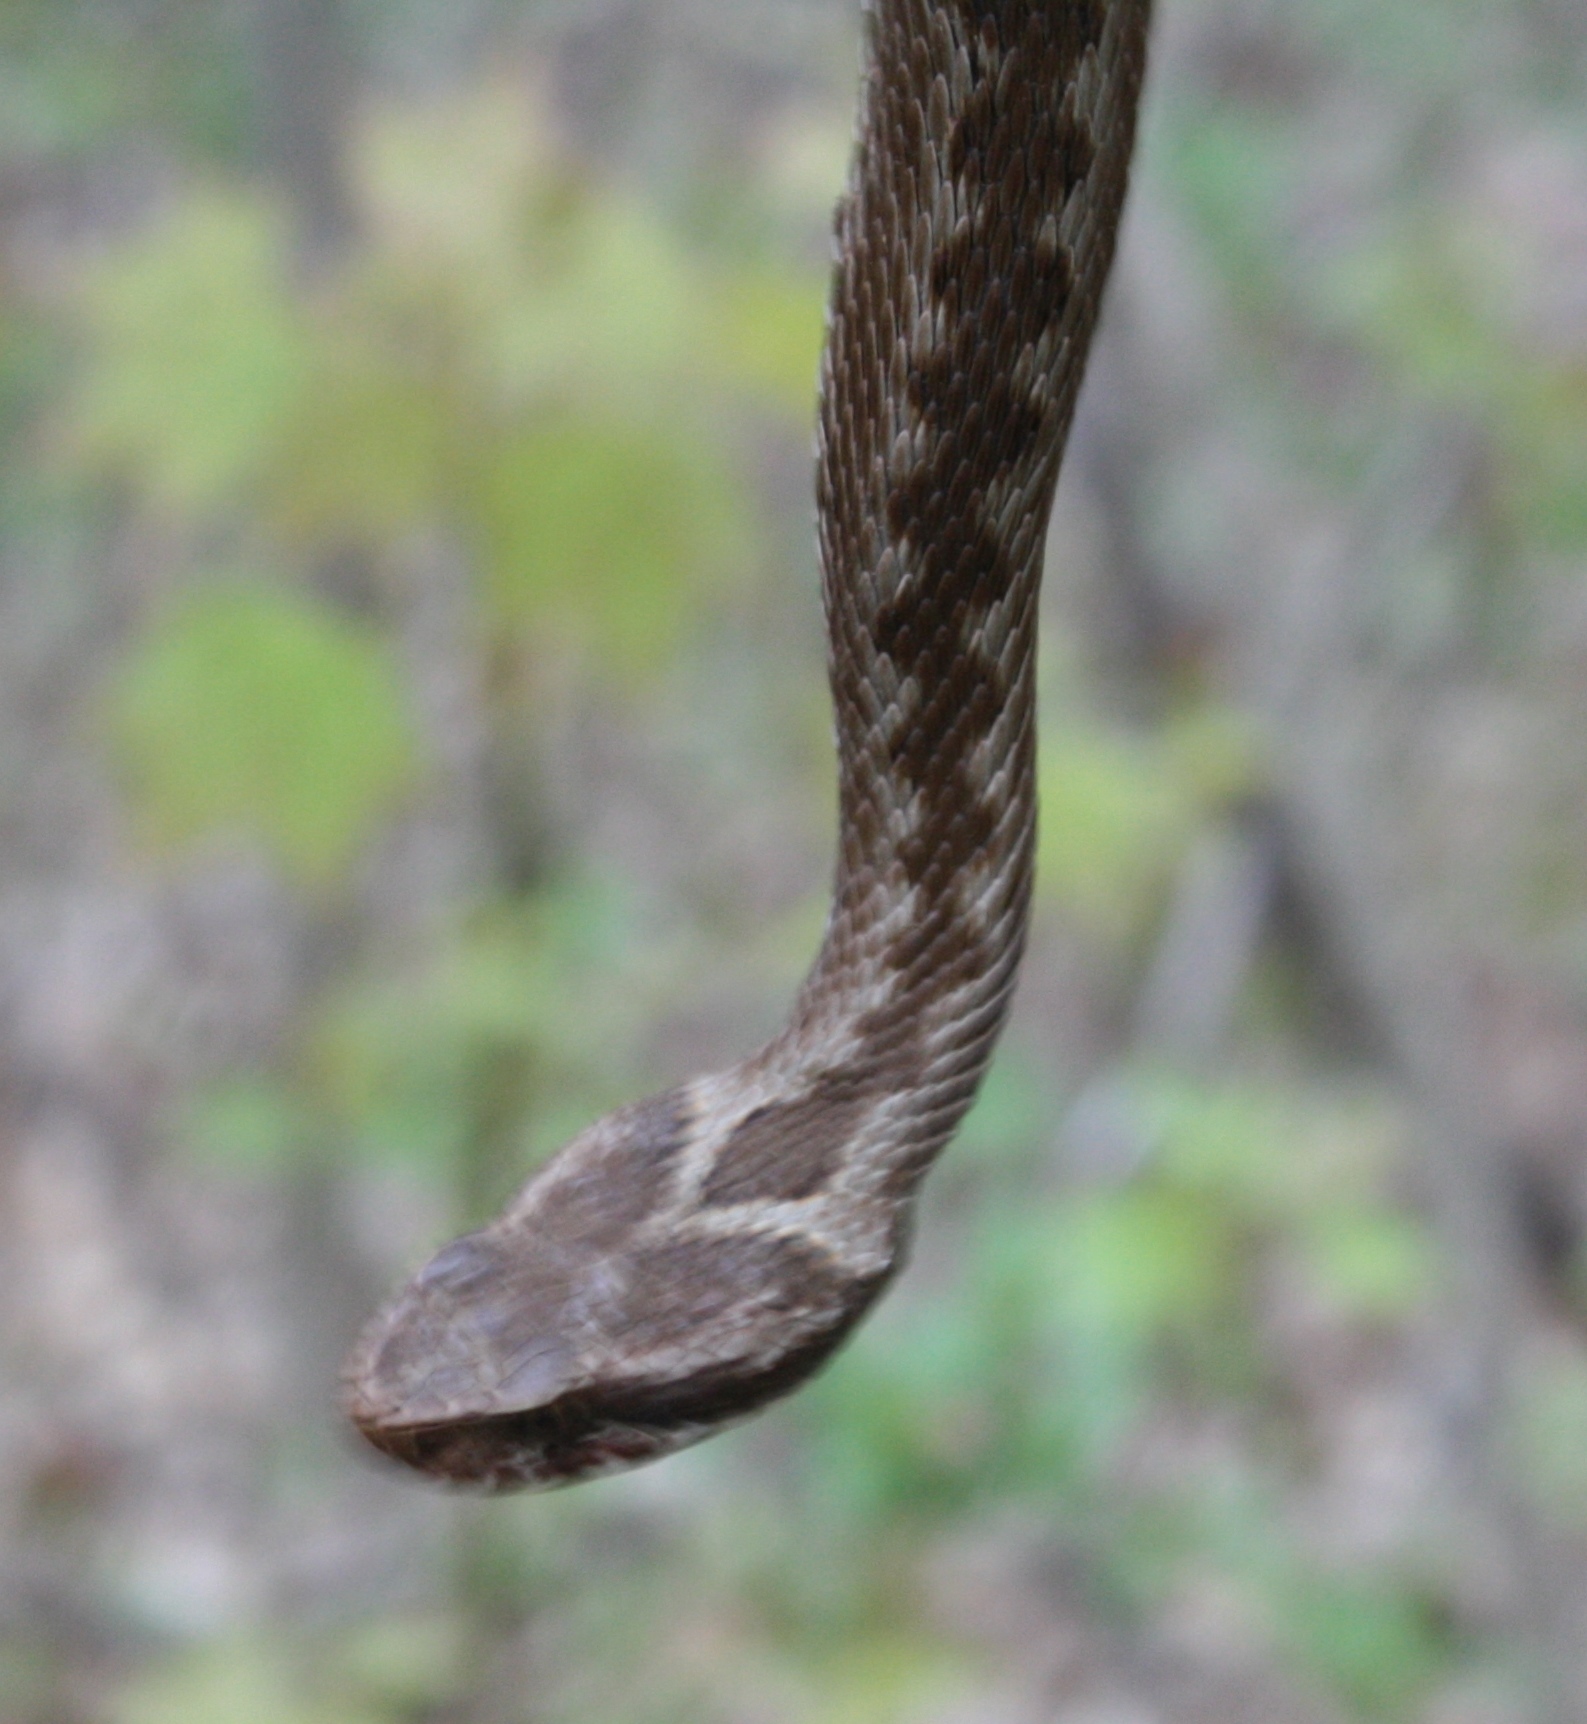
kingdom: Animalia
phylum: Chordata
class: Squamata
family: Viperidae
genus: Vipera
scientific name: Vipera renardi
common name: Eastern steppe viper
